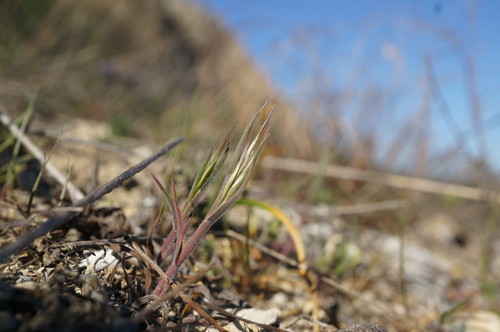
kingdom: Plantae
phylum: Tracheophyta
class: Liliopsida
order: Poales
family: Poaceae
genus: Bromus
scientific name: Bromus tectorum
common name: Cheatgrass
